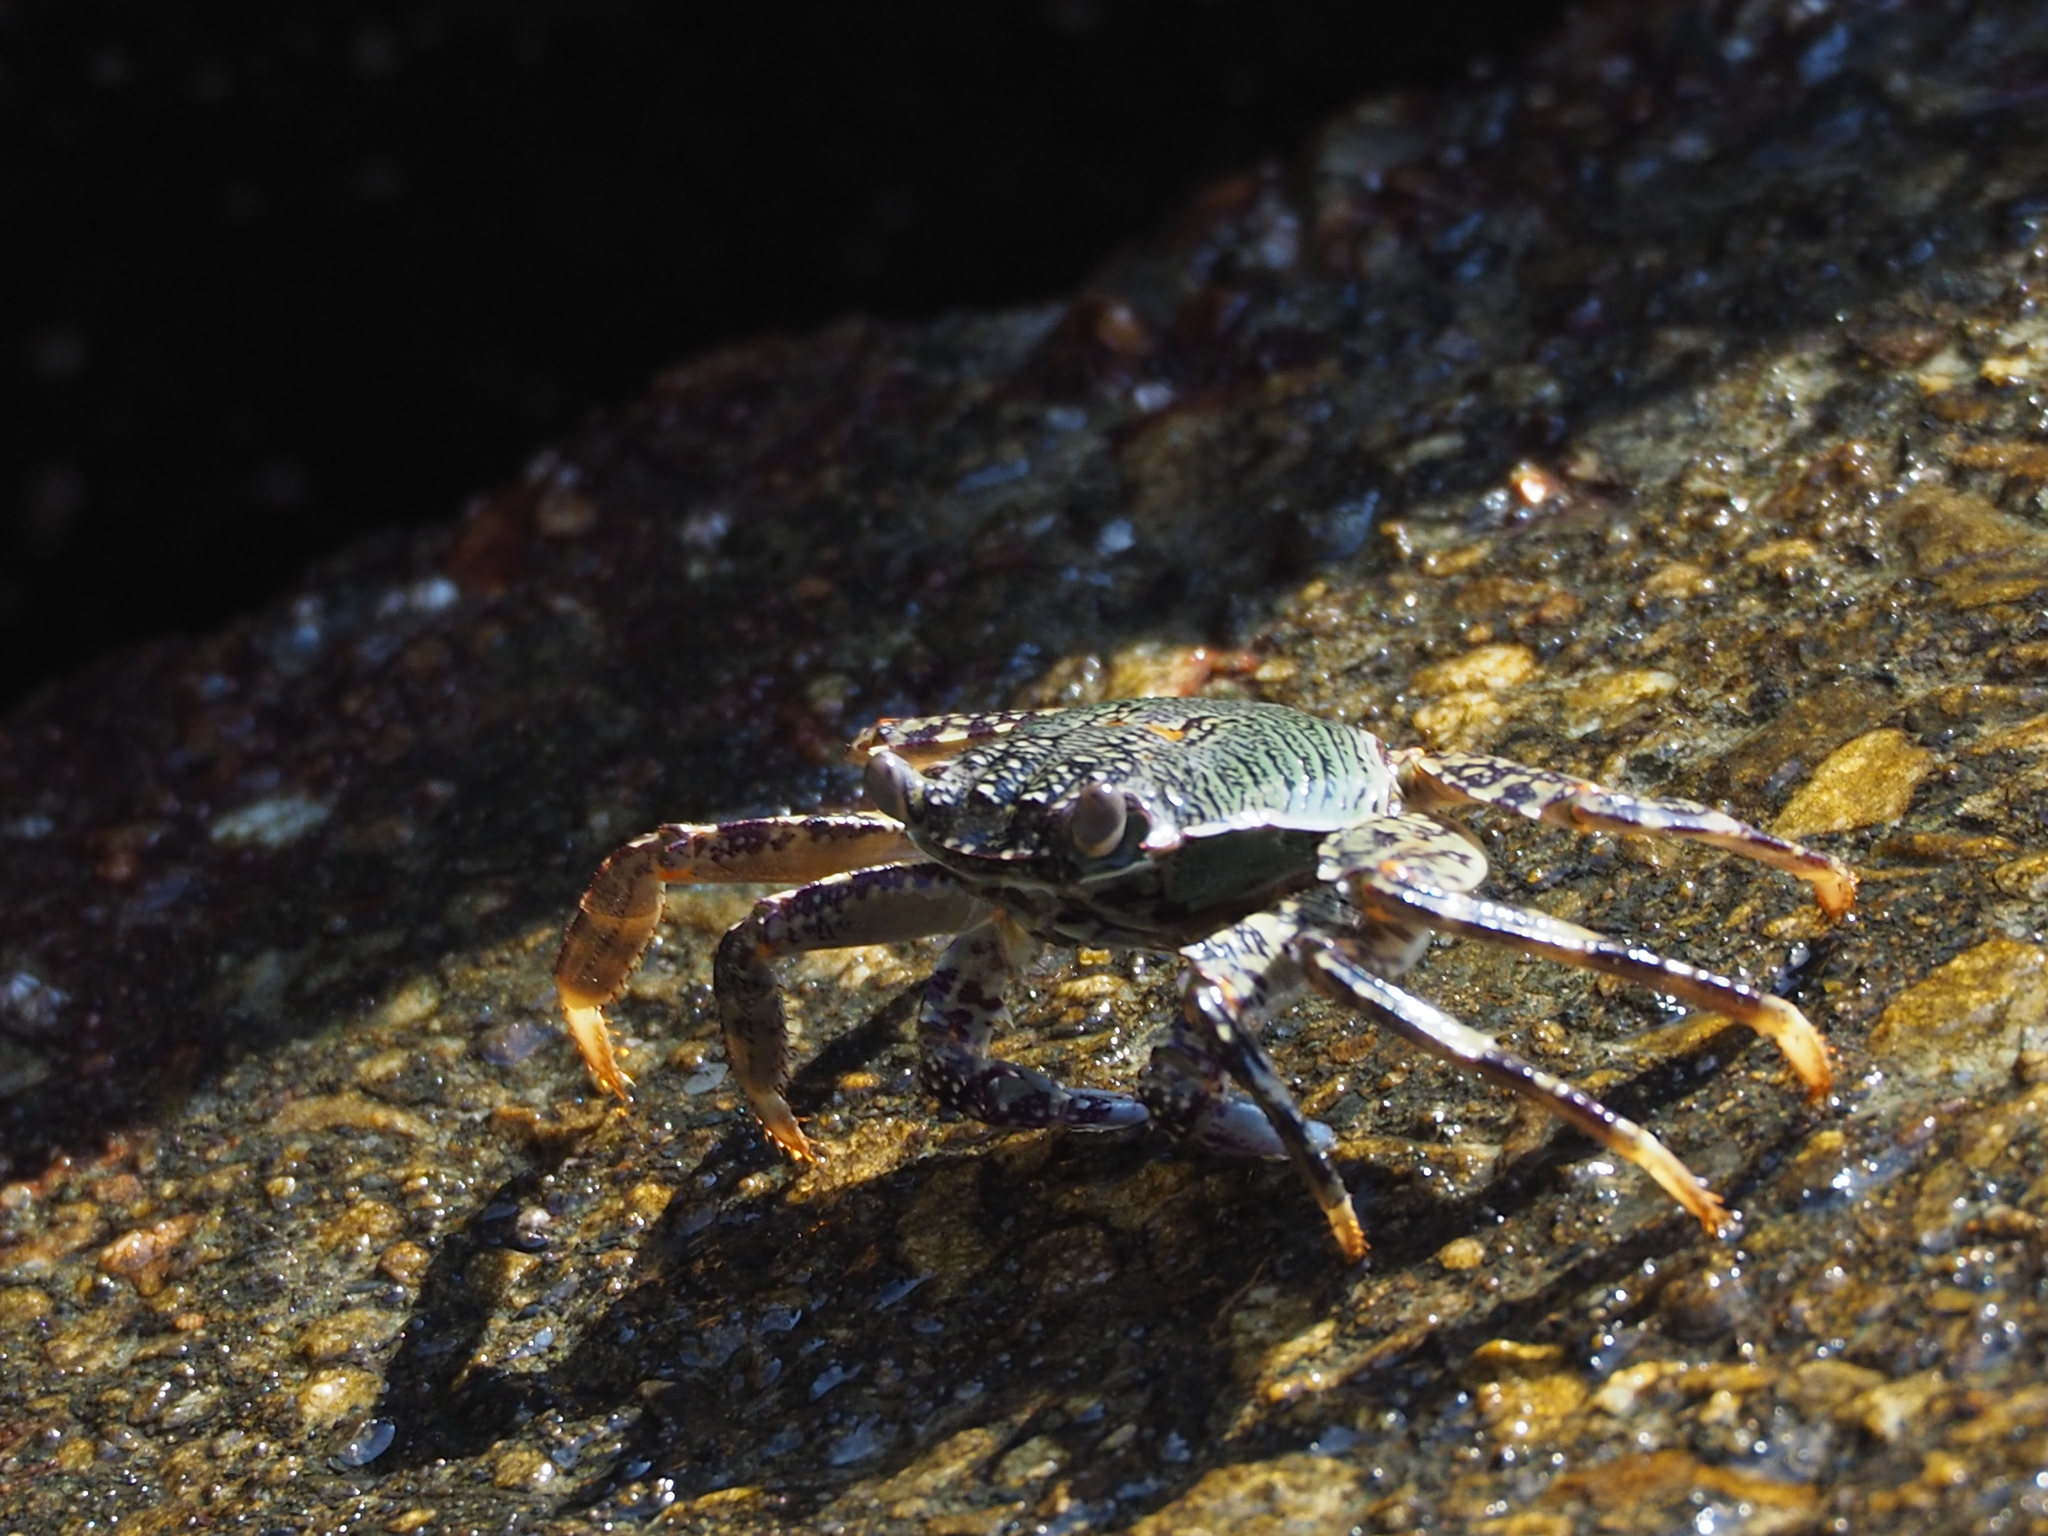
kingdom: Animalia
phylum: Arthropoda
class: Malacostraca
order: Decapoda
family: Grapsidae
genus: Grapsus
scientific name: Grapsus albolineatus
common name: Mottled lightfoot crab
